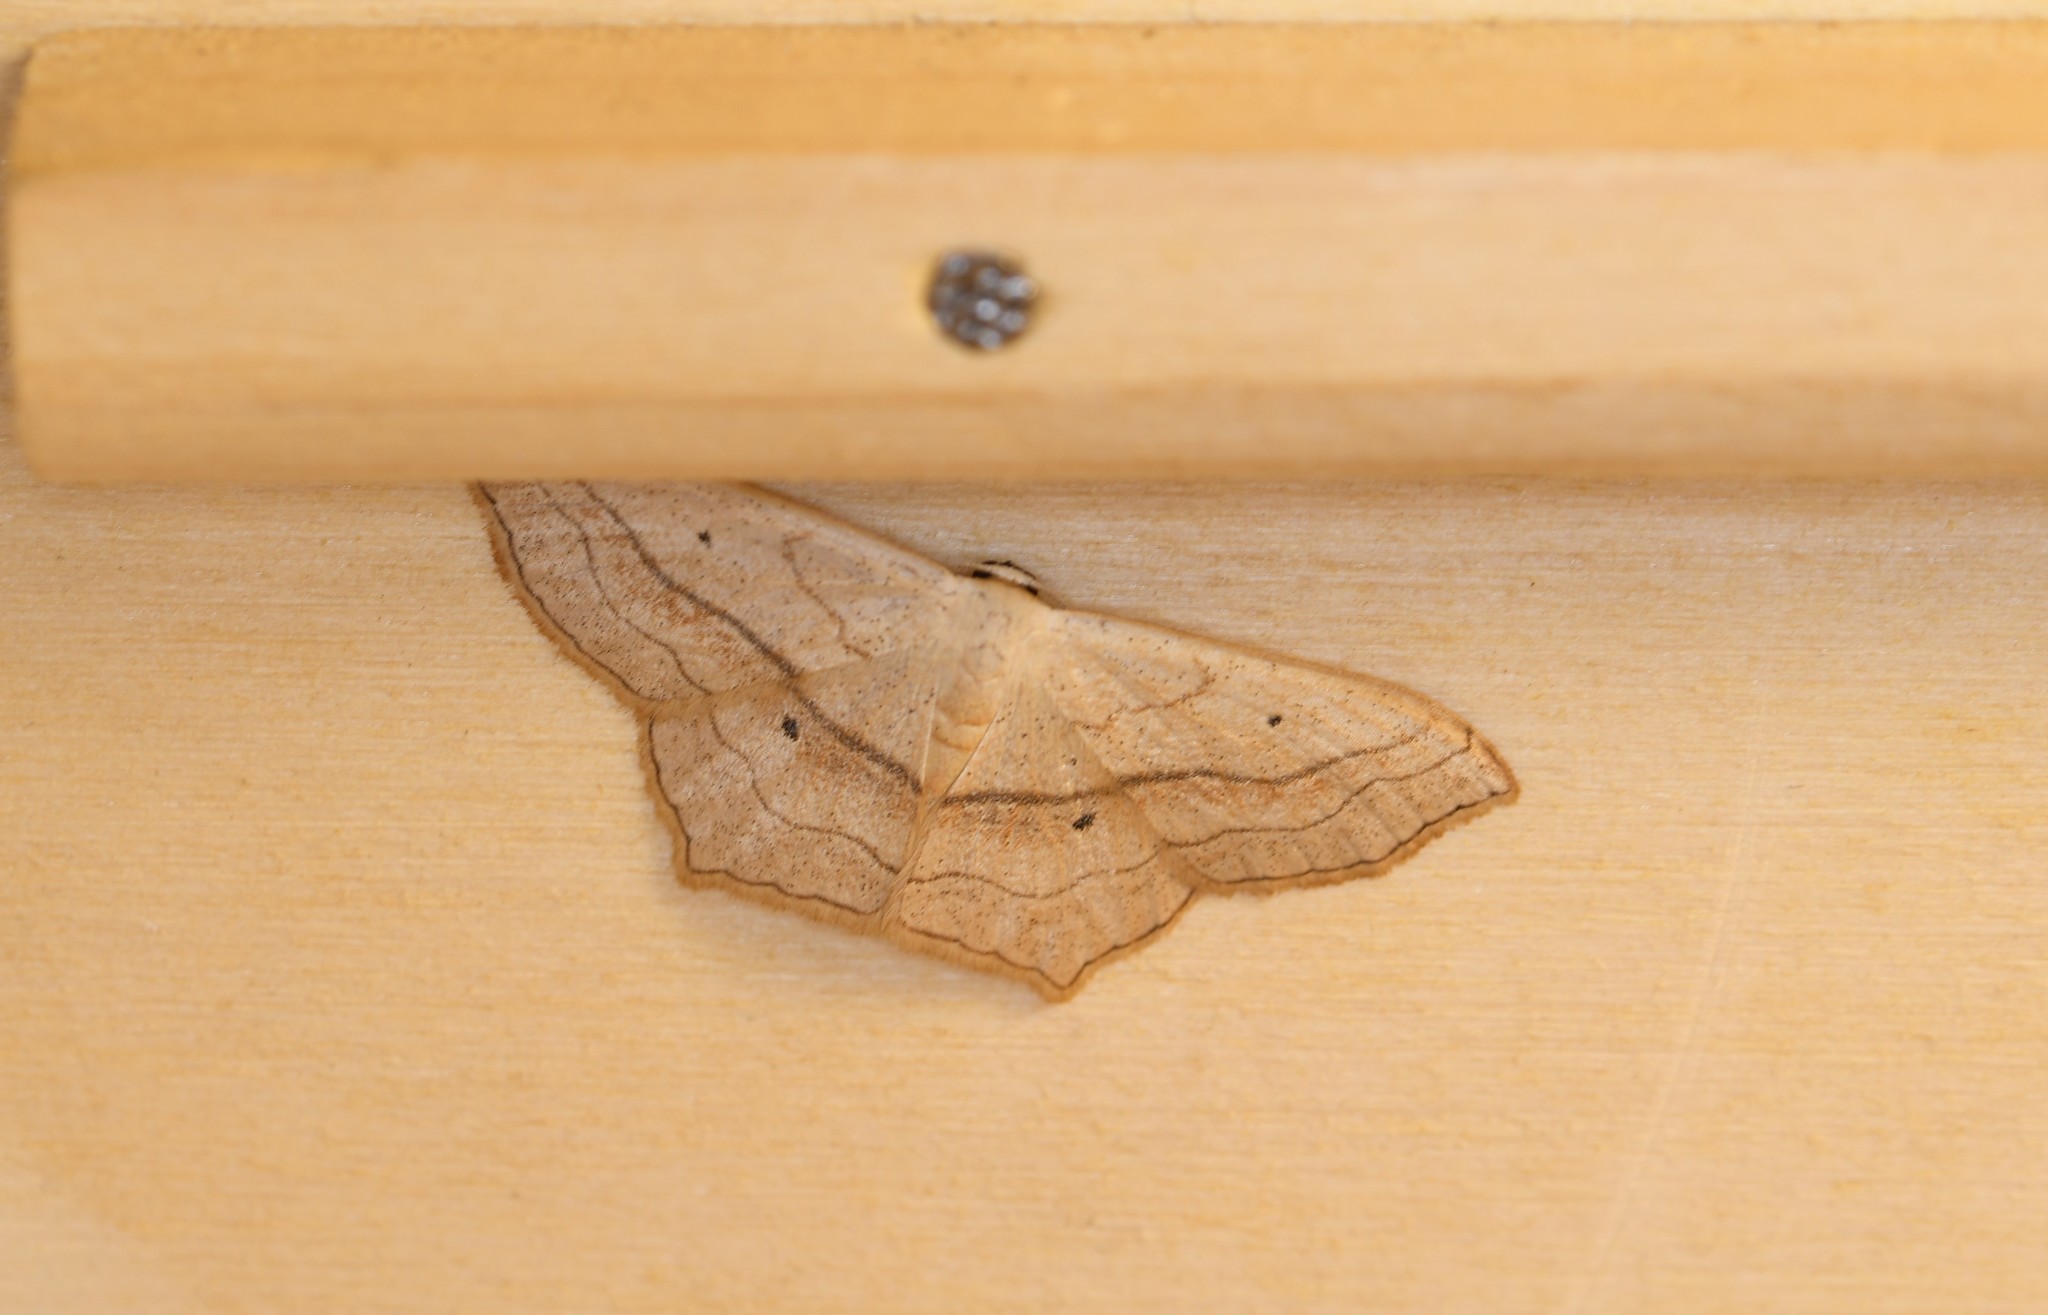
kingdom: Animalia
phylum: Arthropoda
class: Insecta
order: Lepidoptera
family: Geometridae
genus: Scopula
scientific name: Scopula imitaria
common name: Small blood-vein
